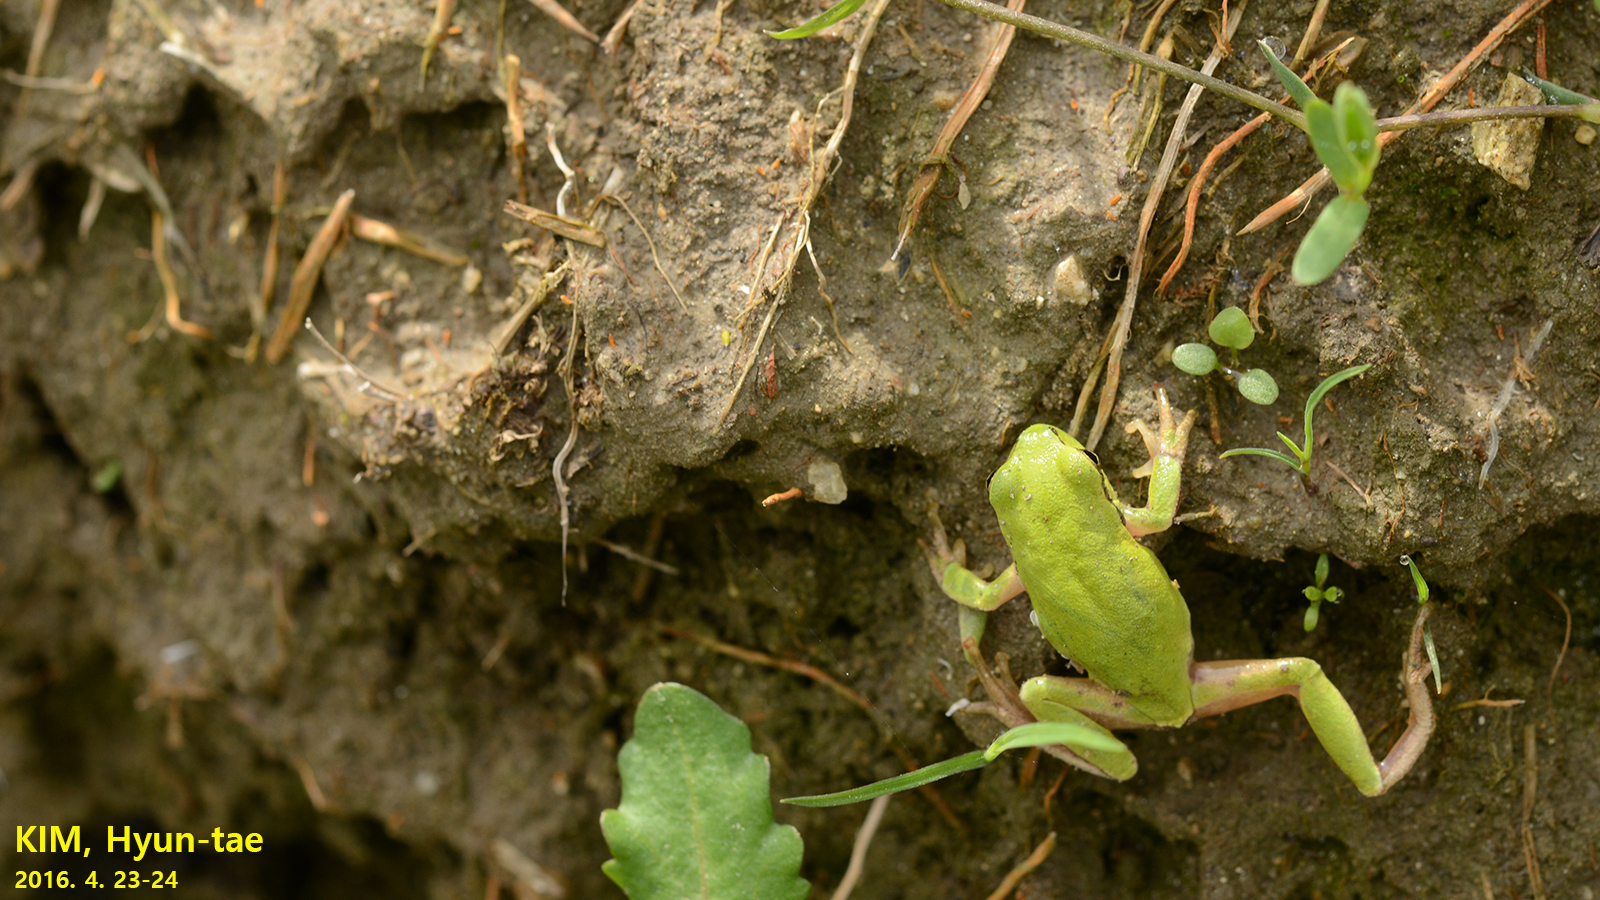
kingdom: Animalia
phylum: Chordata
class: Amphibia
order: Anura
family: Hylidae
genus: Dryophytes
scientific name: Dryophytes immaculatus
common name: North china treefrog
